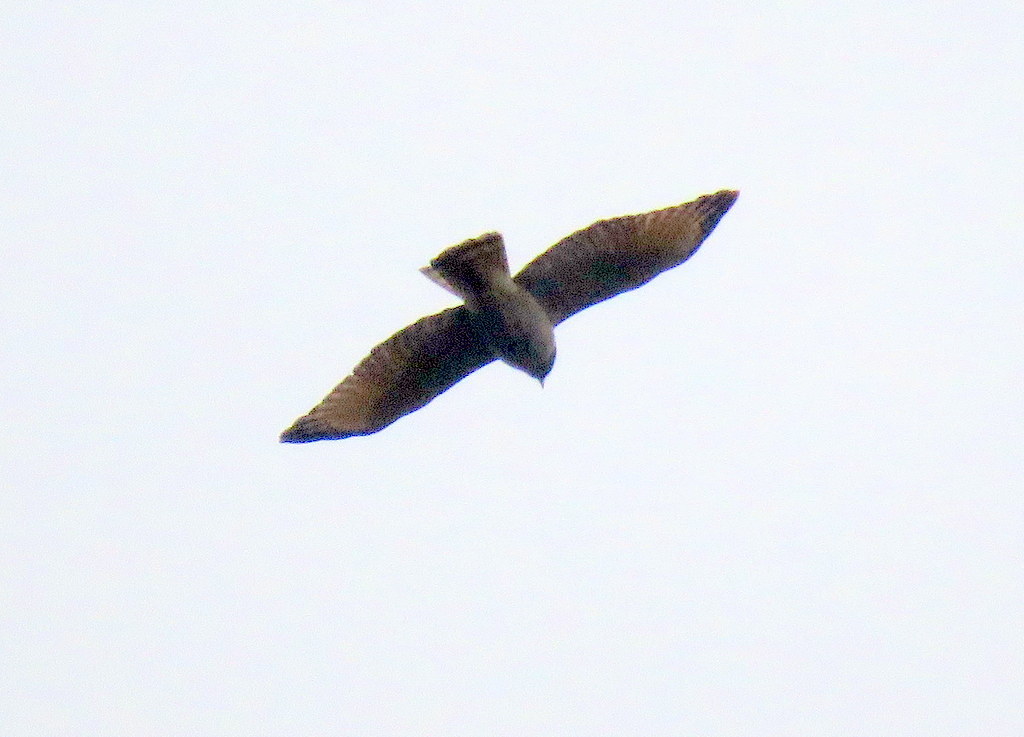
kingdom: Animalia
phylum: Chordata
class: Aves
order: Accipitriformes
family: Accipitridae
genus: Rupornis
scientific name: Rupornis magnirostris
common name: Roadside hawk
